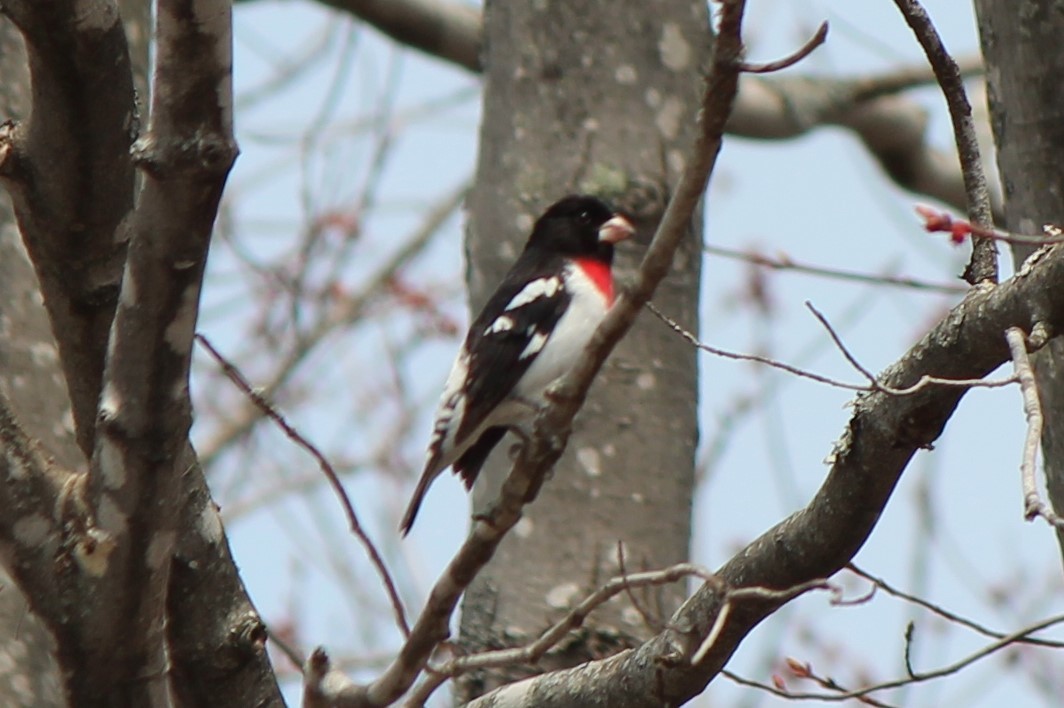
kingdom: Animalia
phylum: Chordata
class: Aves
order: Passeriformes
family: Cardinalidae
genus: Pheucticus
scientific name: Pheucticus ludovicianus
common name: Rose-breasted grosbeak
